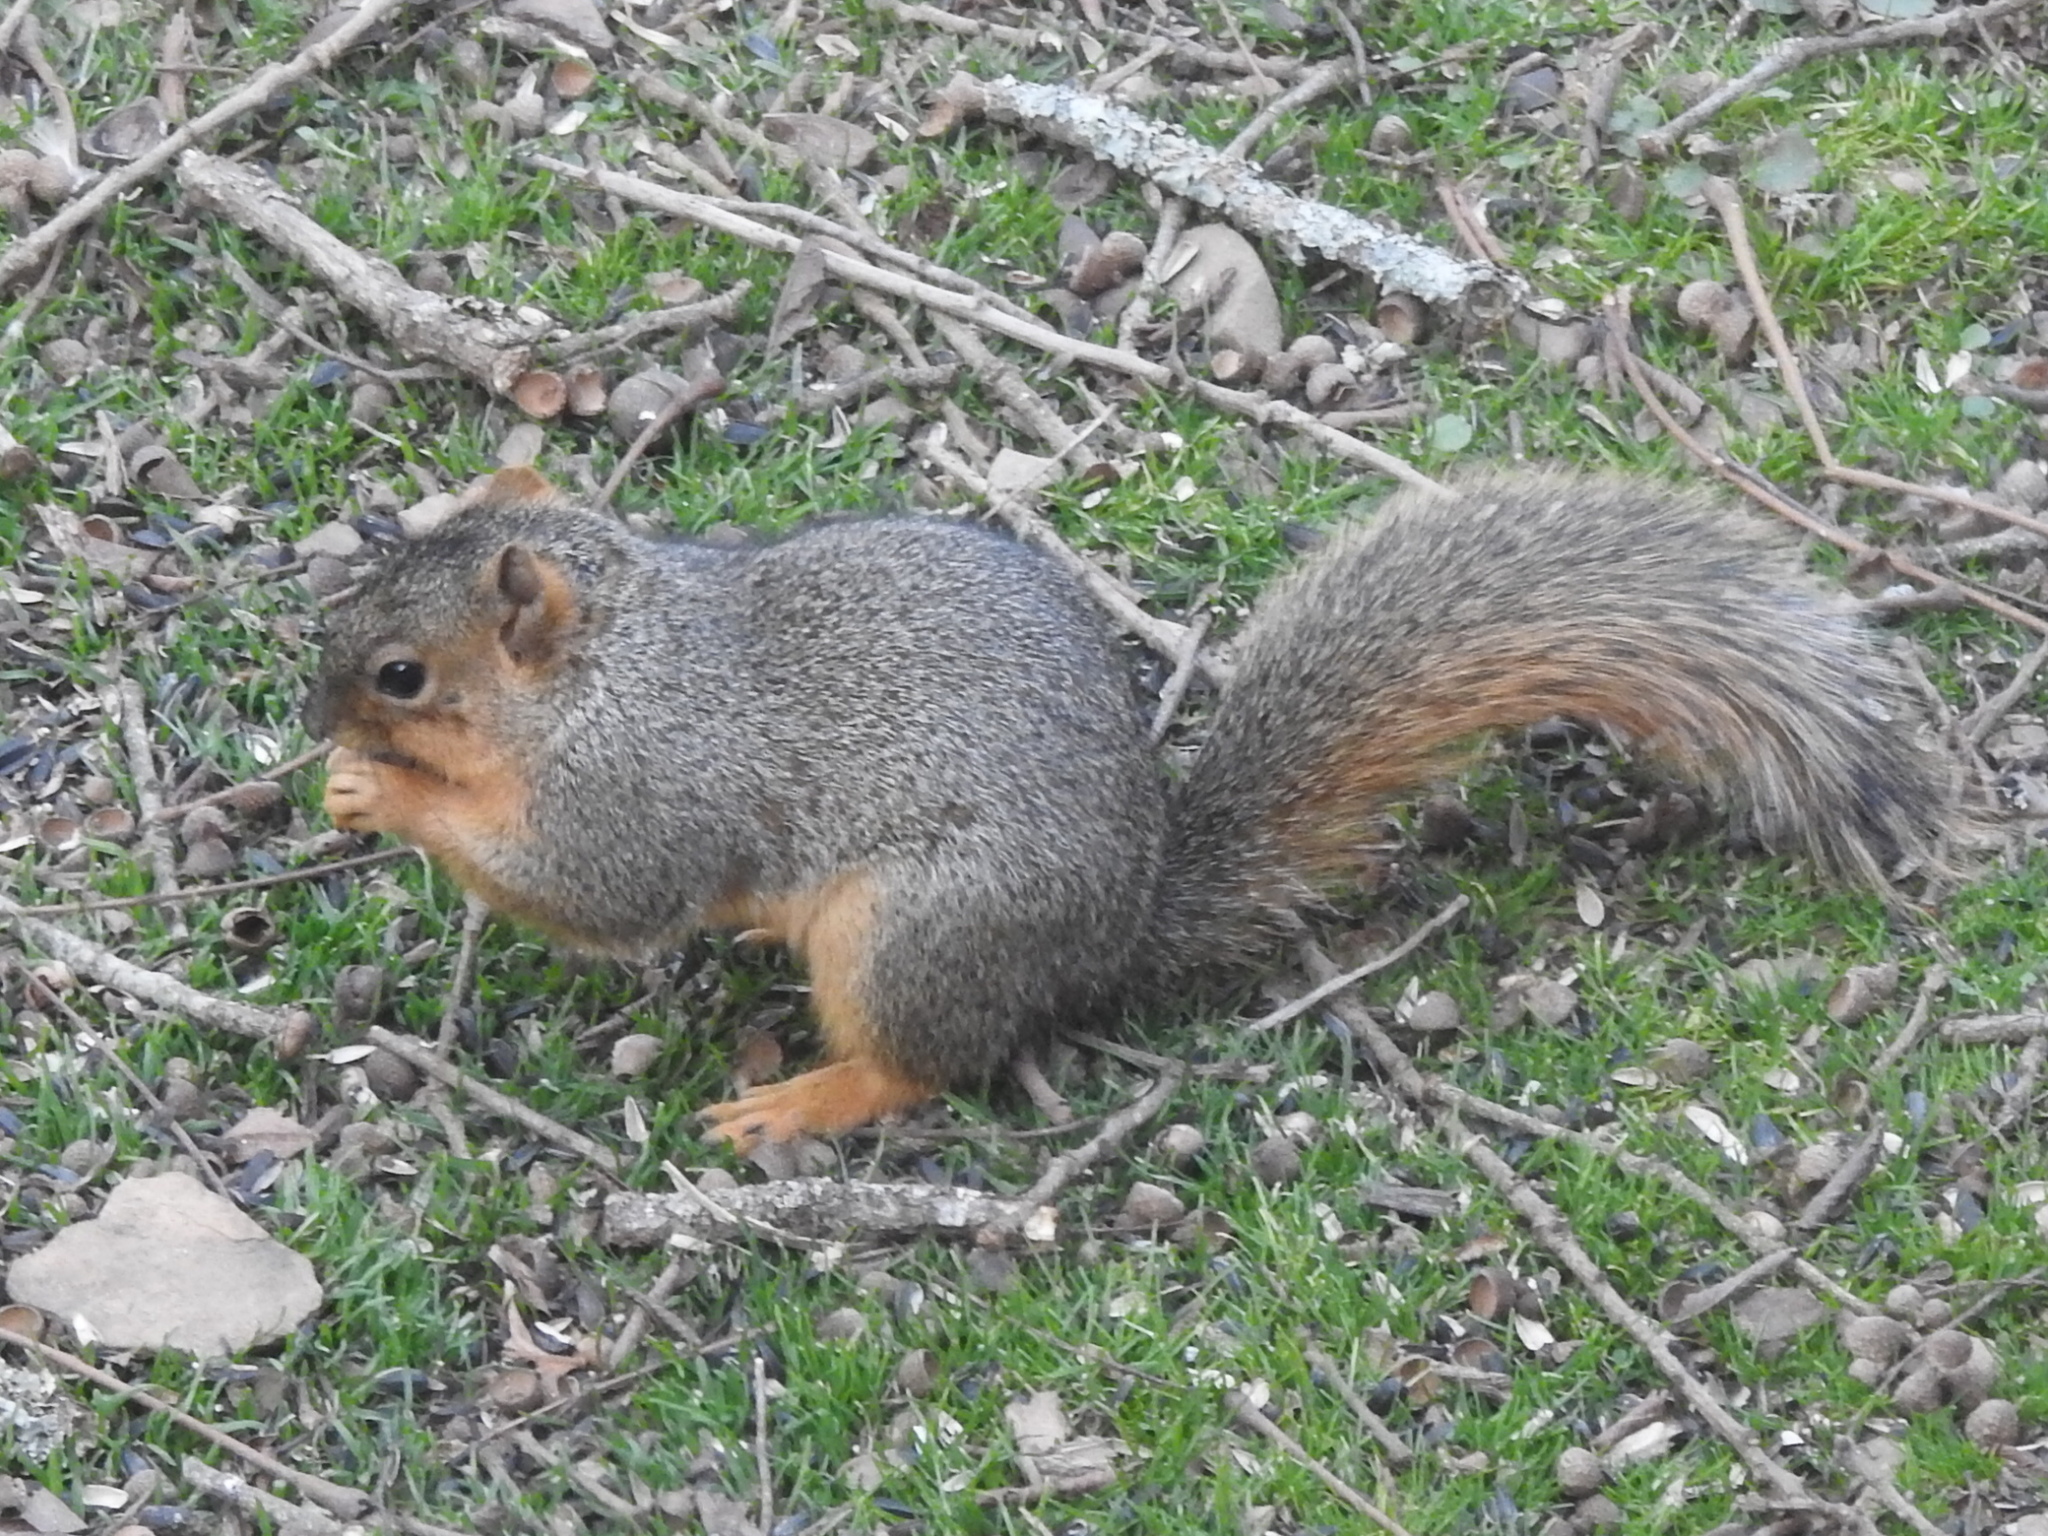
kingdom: Animalia
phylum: Chordata
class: Mammalia
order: Rodentia
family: Sciuridae
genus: Sciurus
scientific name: Sciurus niger
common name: Fox squirrel
